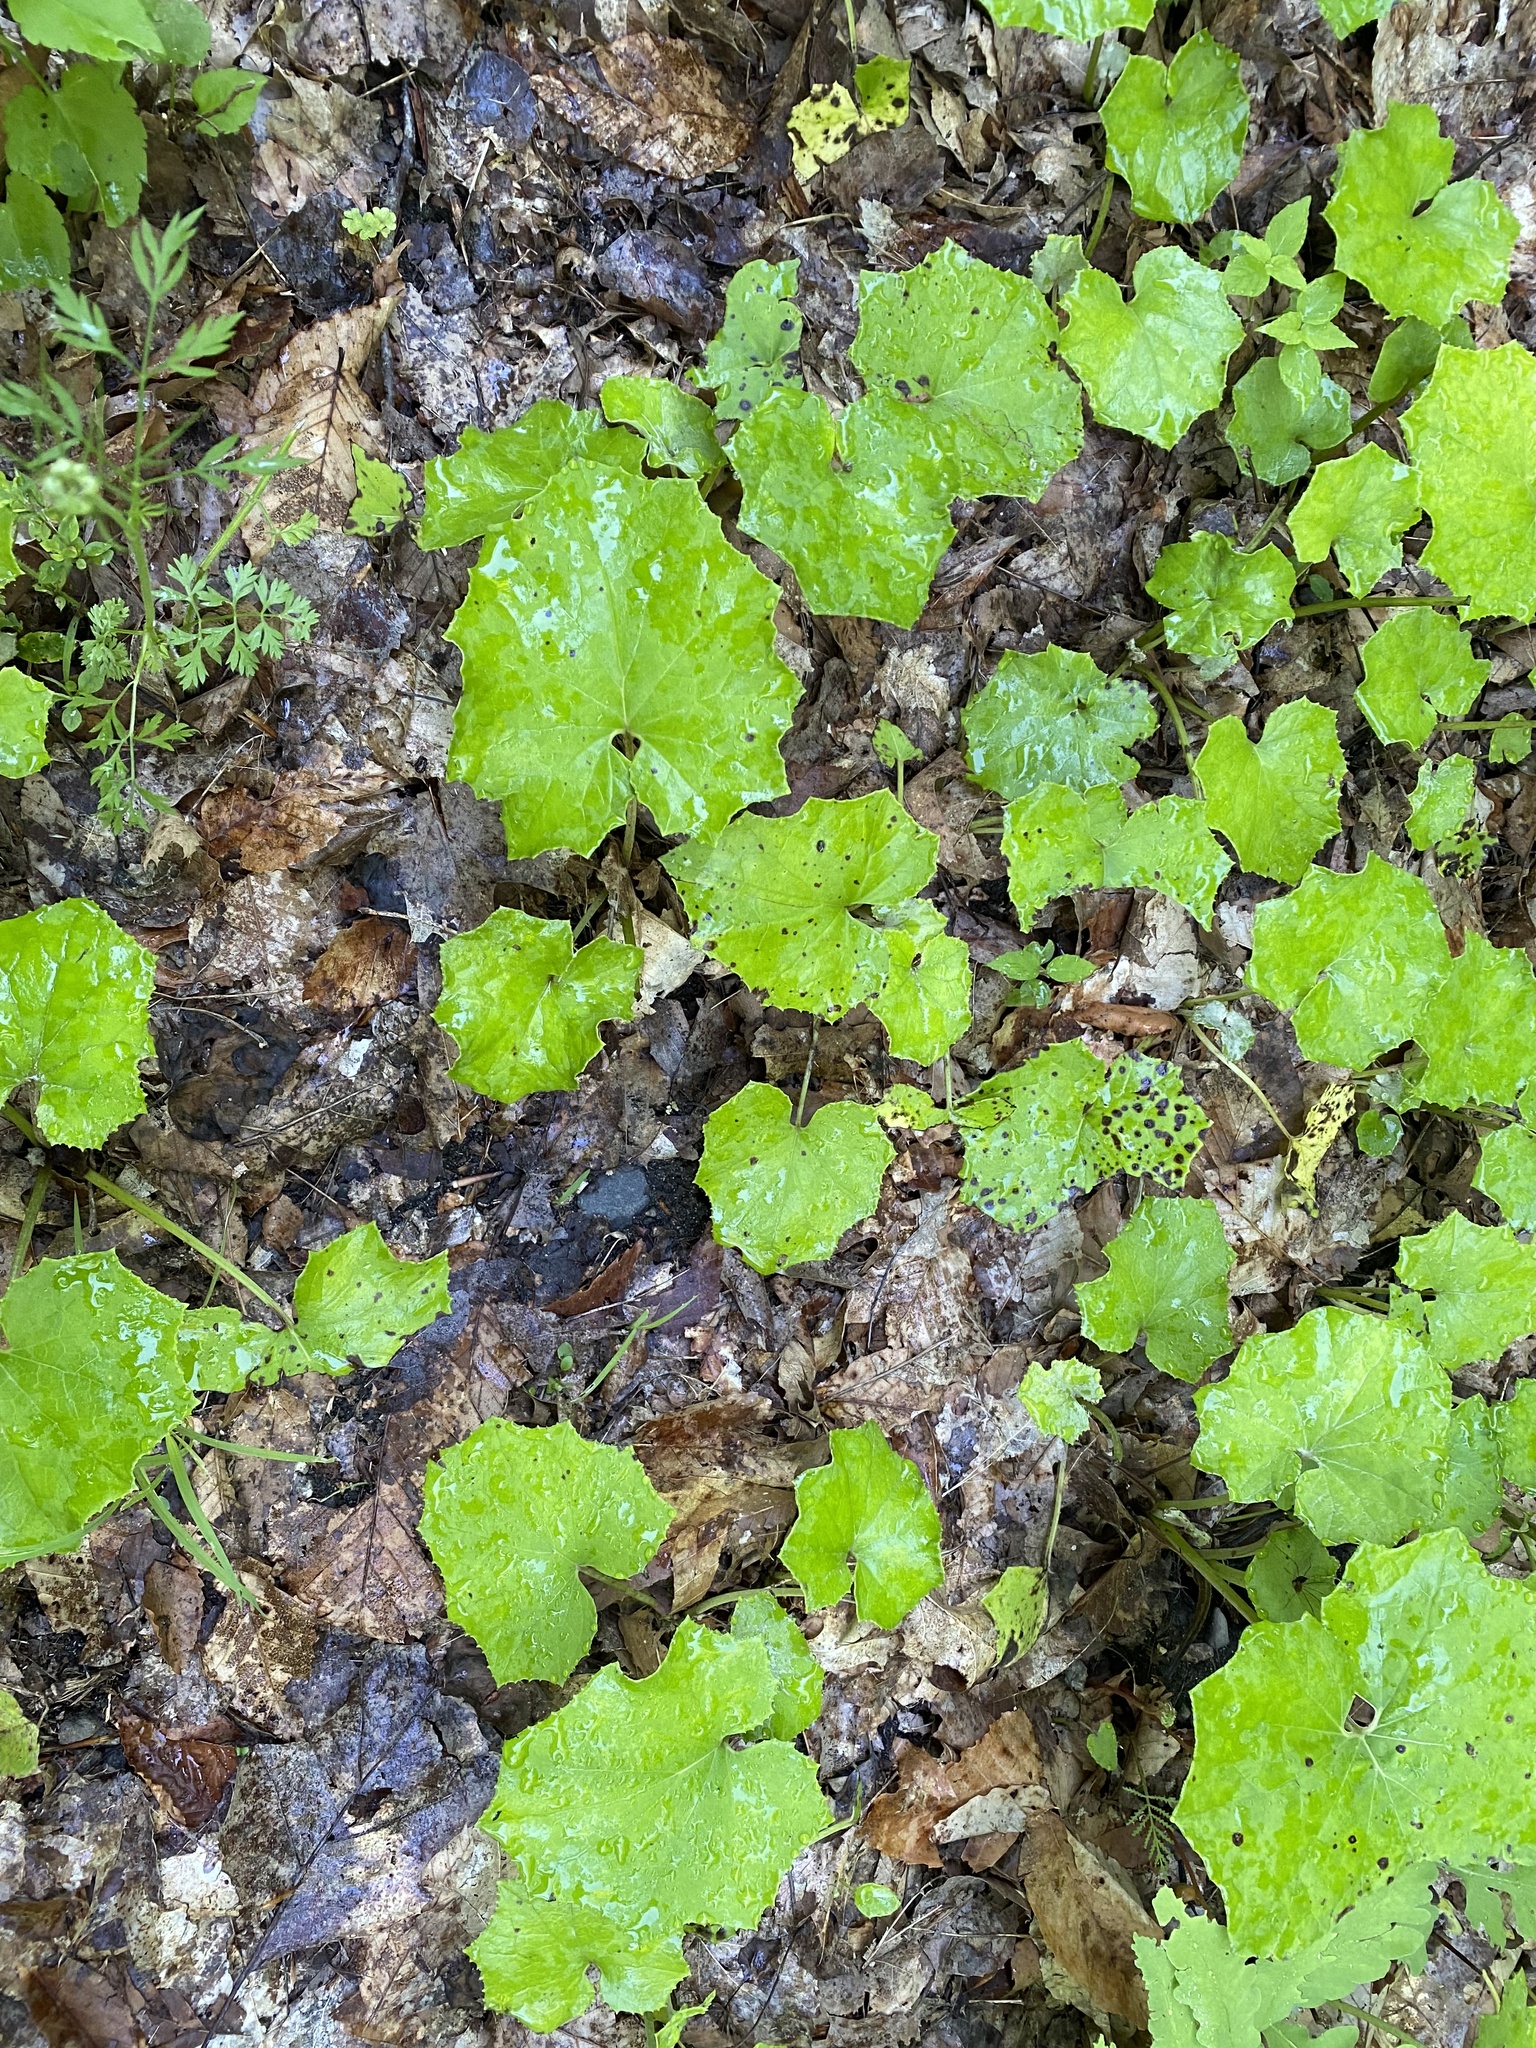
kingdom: Plantae
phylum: Tracheophyta
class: Magnoliopsida
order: Asterales
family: Asteraceae
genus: Tussilago
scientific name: Tussilago farfara
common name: Coltsfoot
